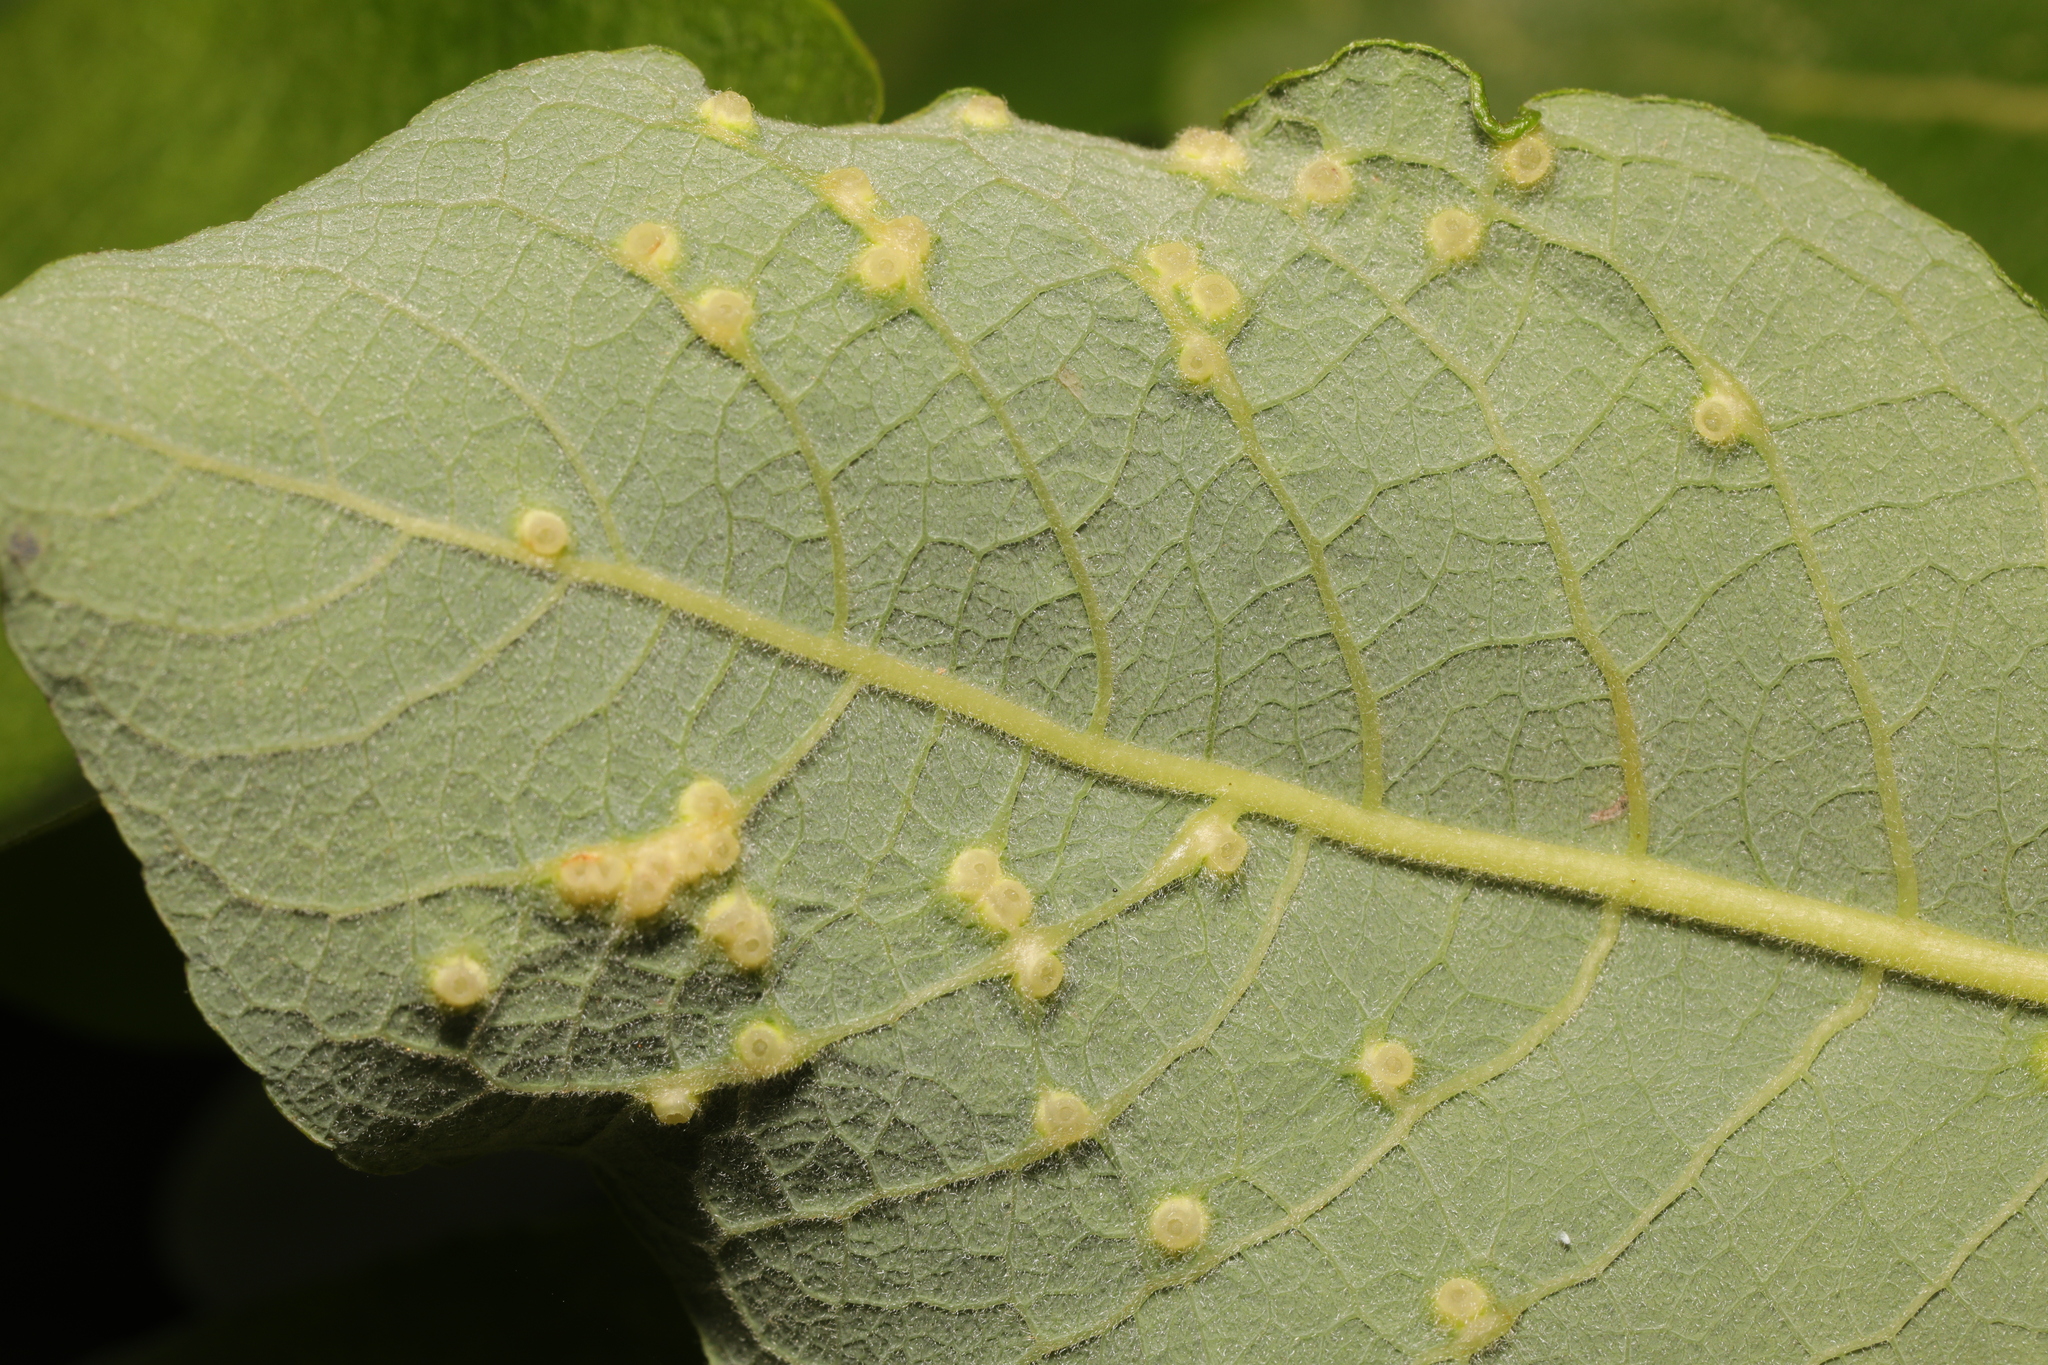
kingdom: Animalia
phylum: Arthropoda
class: Insecta
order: Diptera
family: Cecidomyiidae
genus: Iteomyia
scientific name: Iteomyia capreae
